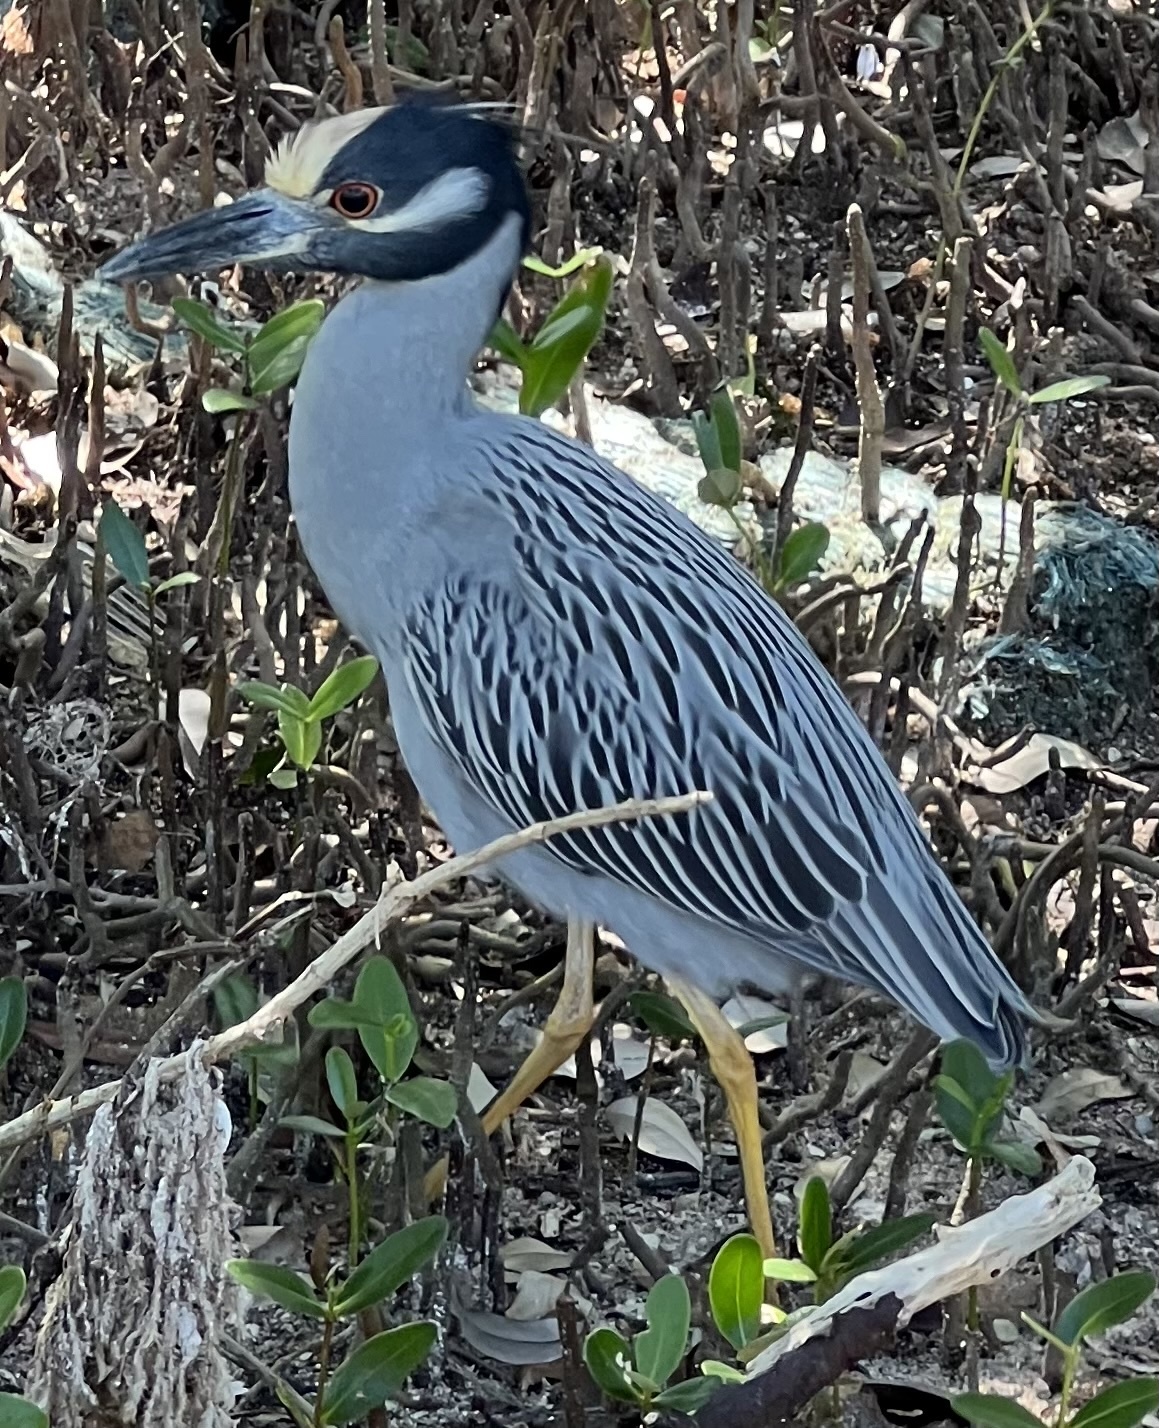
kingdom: Animalia
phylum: Chordata
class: Aves
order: Pelecaniformes
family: Ardeidae
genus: Nyctanassa
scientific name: Nyctanassa violacea
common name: Yellow-crowned night heron
